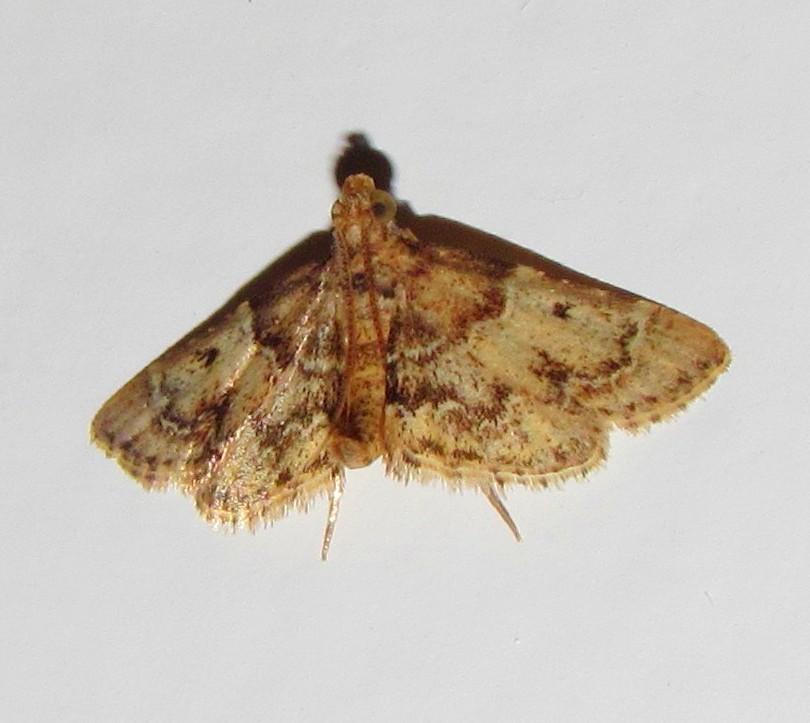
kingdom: Animalia
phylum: Arthropoda
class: Insecta
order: Lepidoptera
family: Pyralidae
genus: Pyralis
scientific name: Pyralis manihotalis
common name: Moth
